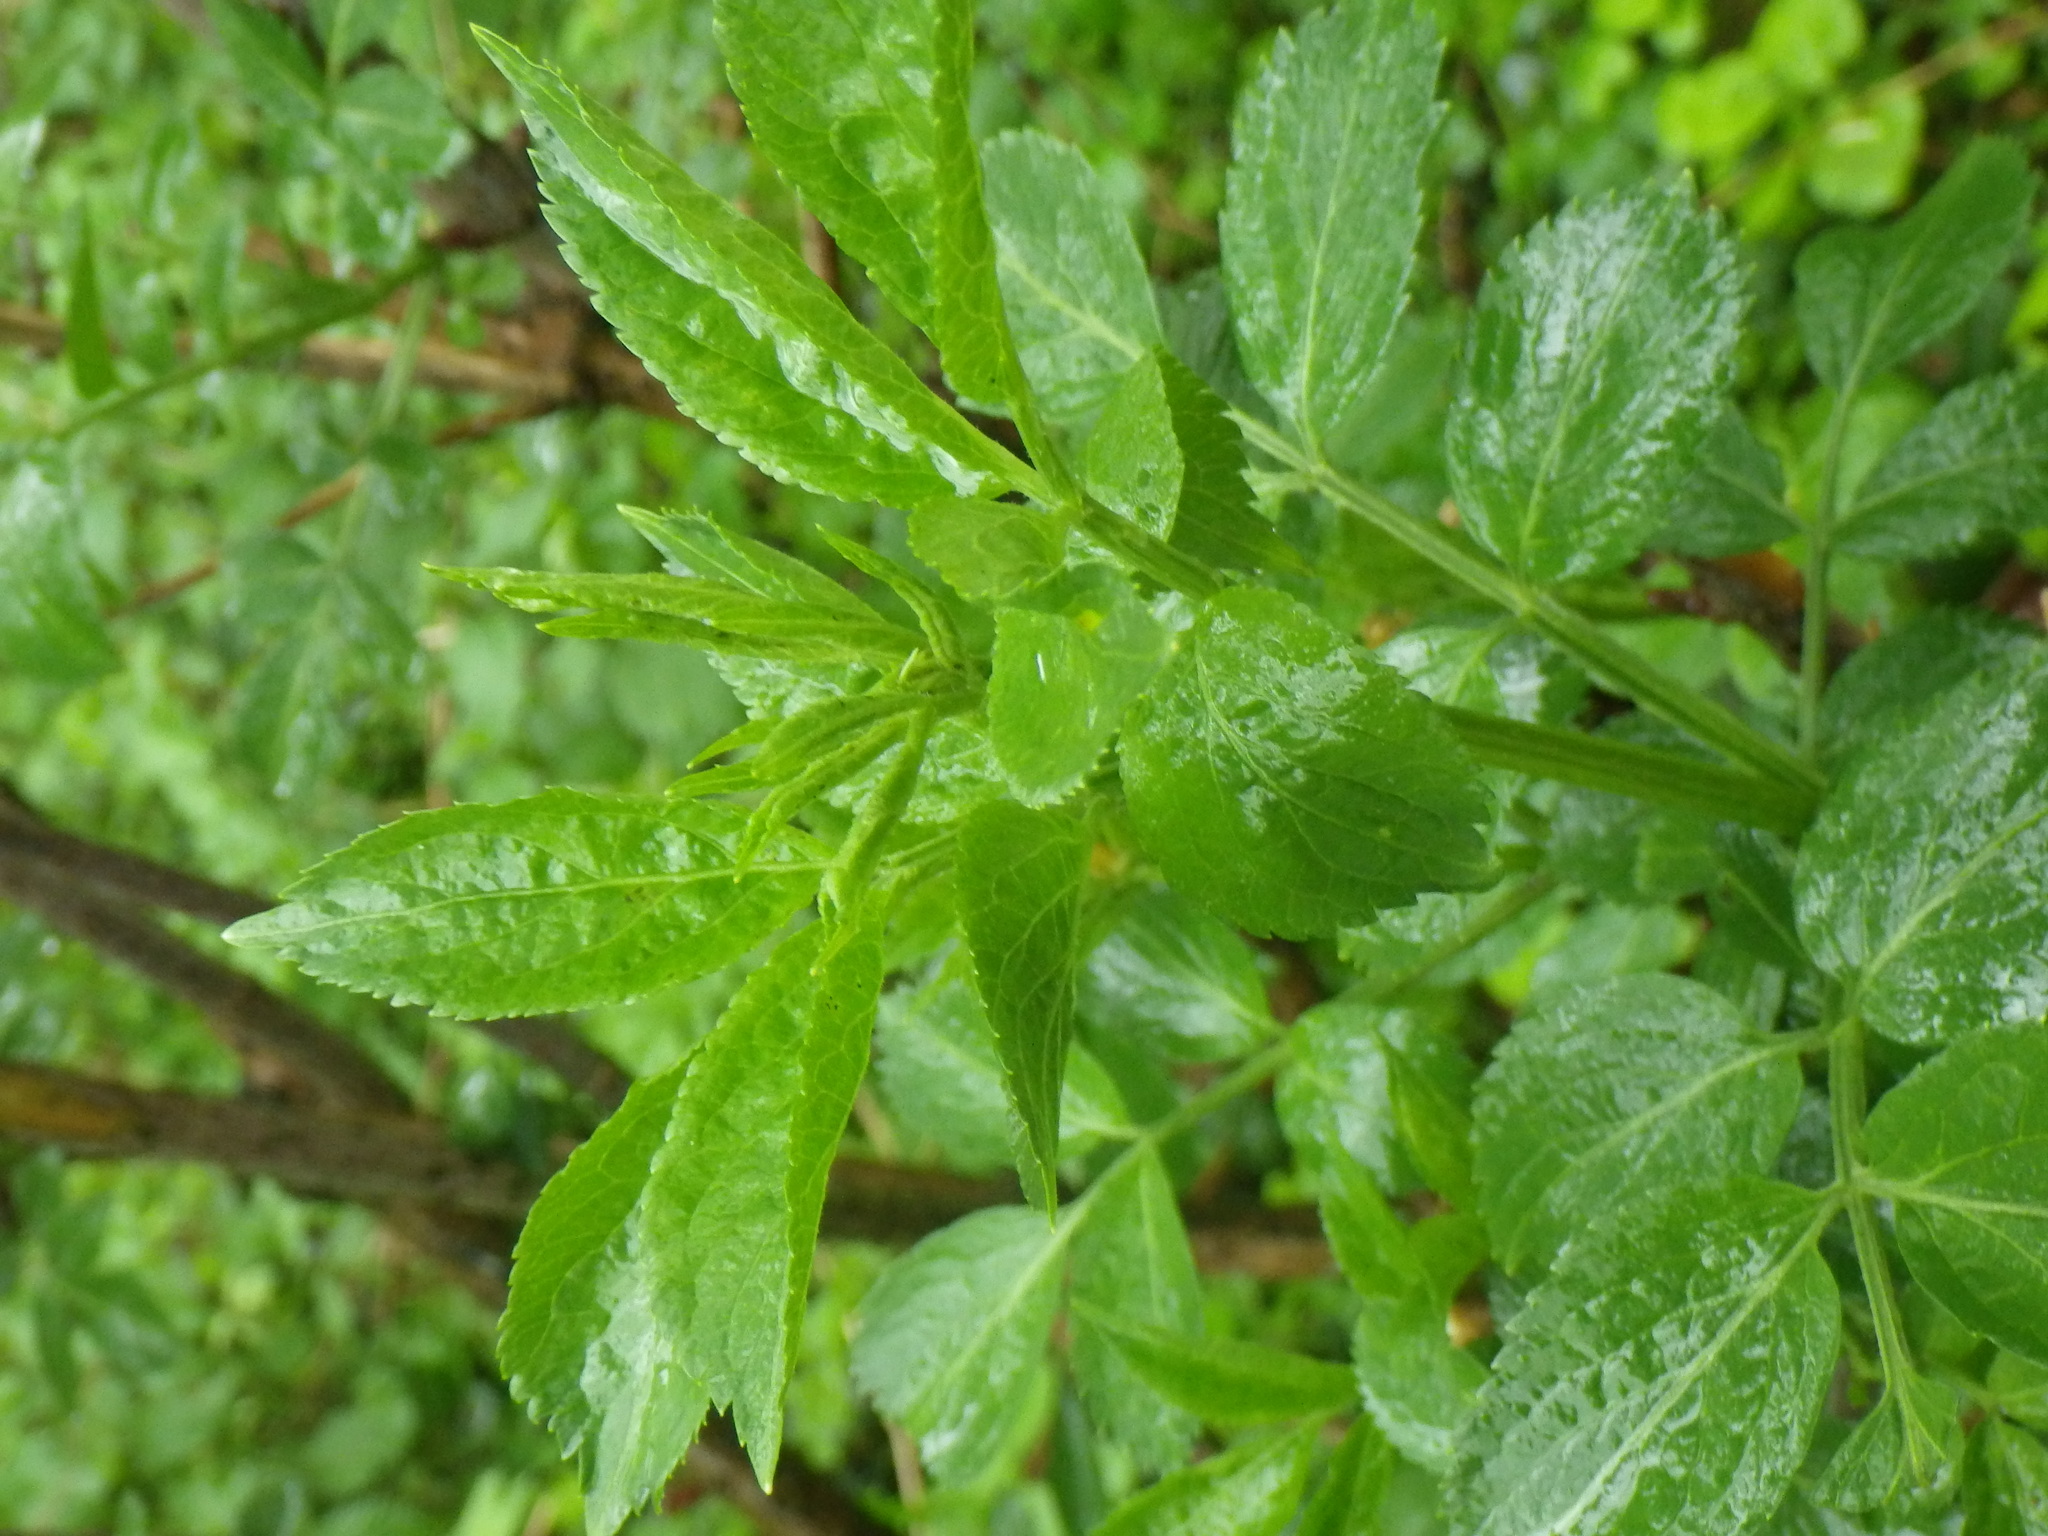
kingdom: Plantae
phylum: Tracheophyta
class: Magnoliopsida
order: Dipsacales
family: Viburnaceae
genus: Sambucus
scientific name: Sambucus nigra
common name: Elder
